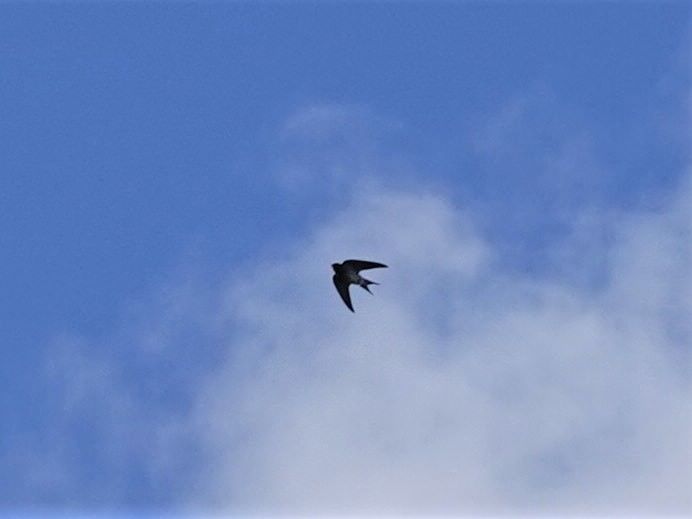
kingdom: Animalia
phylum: Chordata
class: Aves
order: Passeriformes
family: Hirundinidae
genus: Hirundo
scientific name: Hirundo neoxena
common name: Welcome swallow
